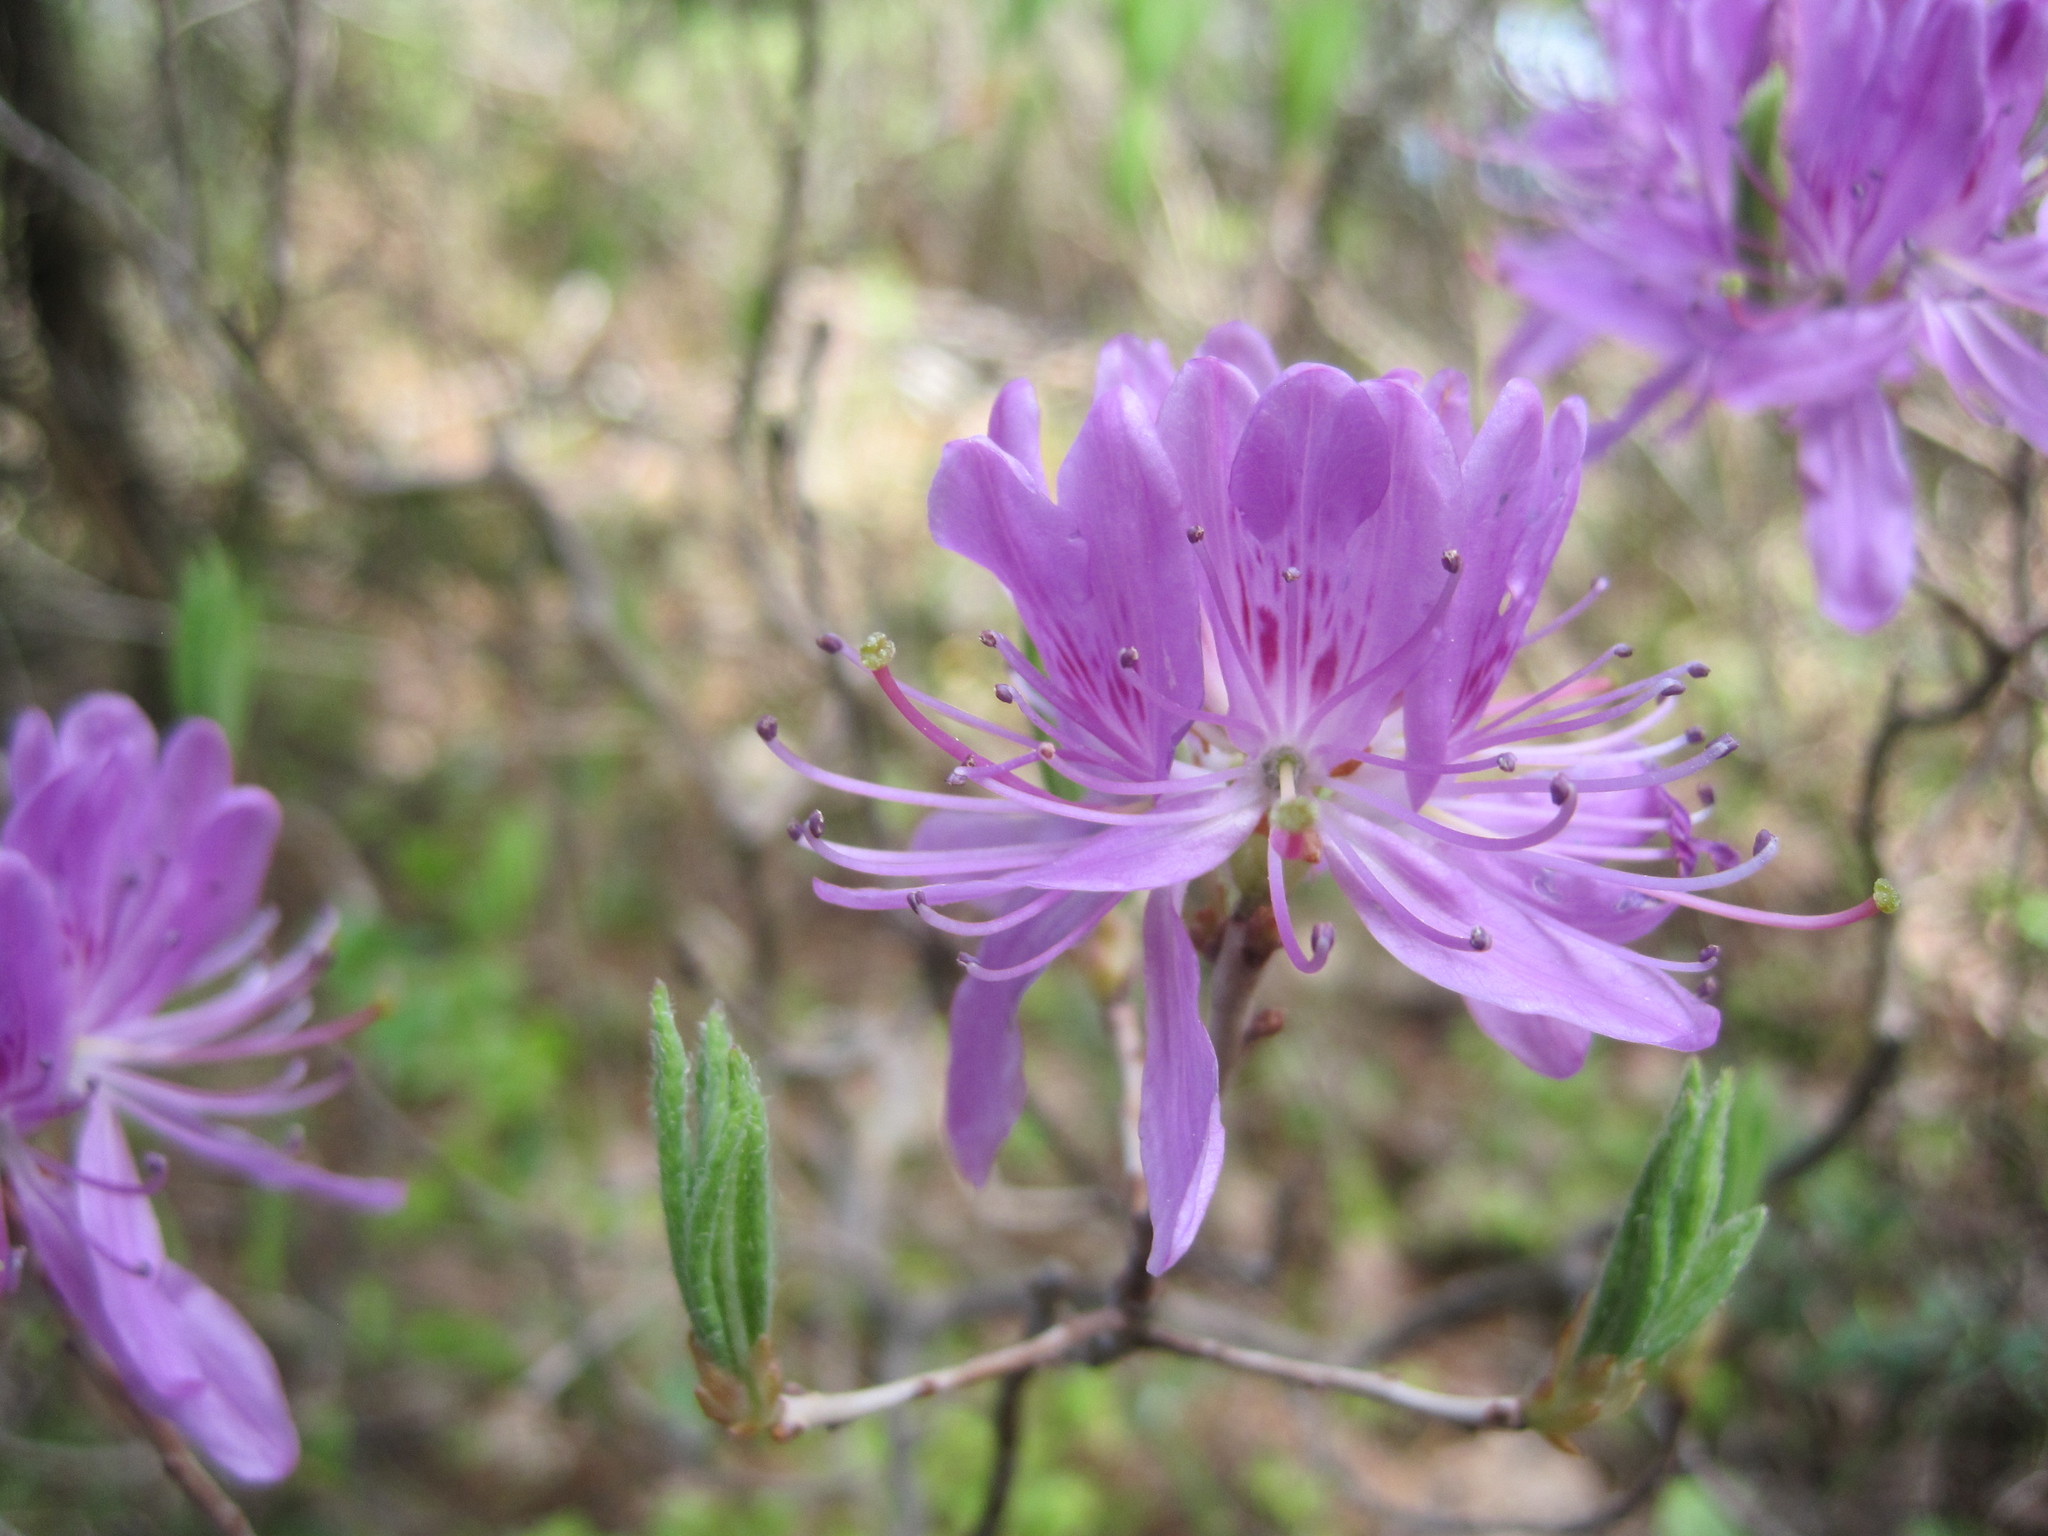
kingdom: Plantae
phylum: Tracheophyta
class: Magnoliopsida
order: Ericales
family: Ericaceae
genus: Rhododendron
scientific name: Rhododendron canadense
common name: Rhodora
